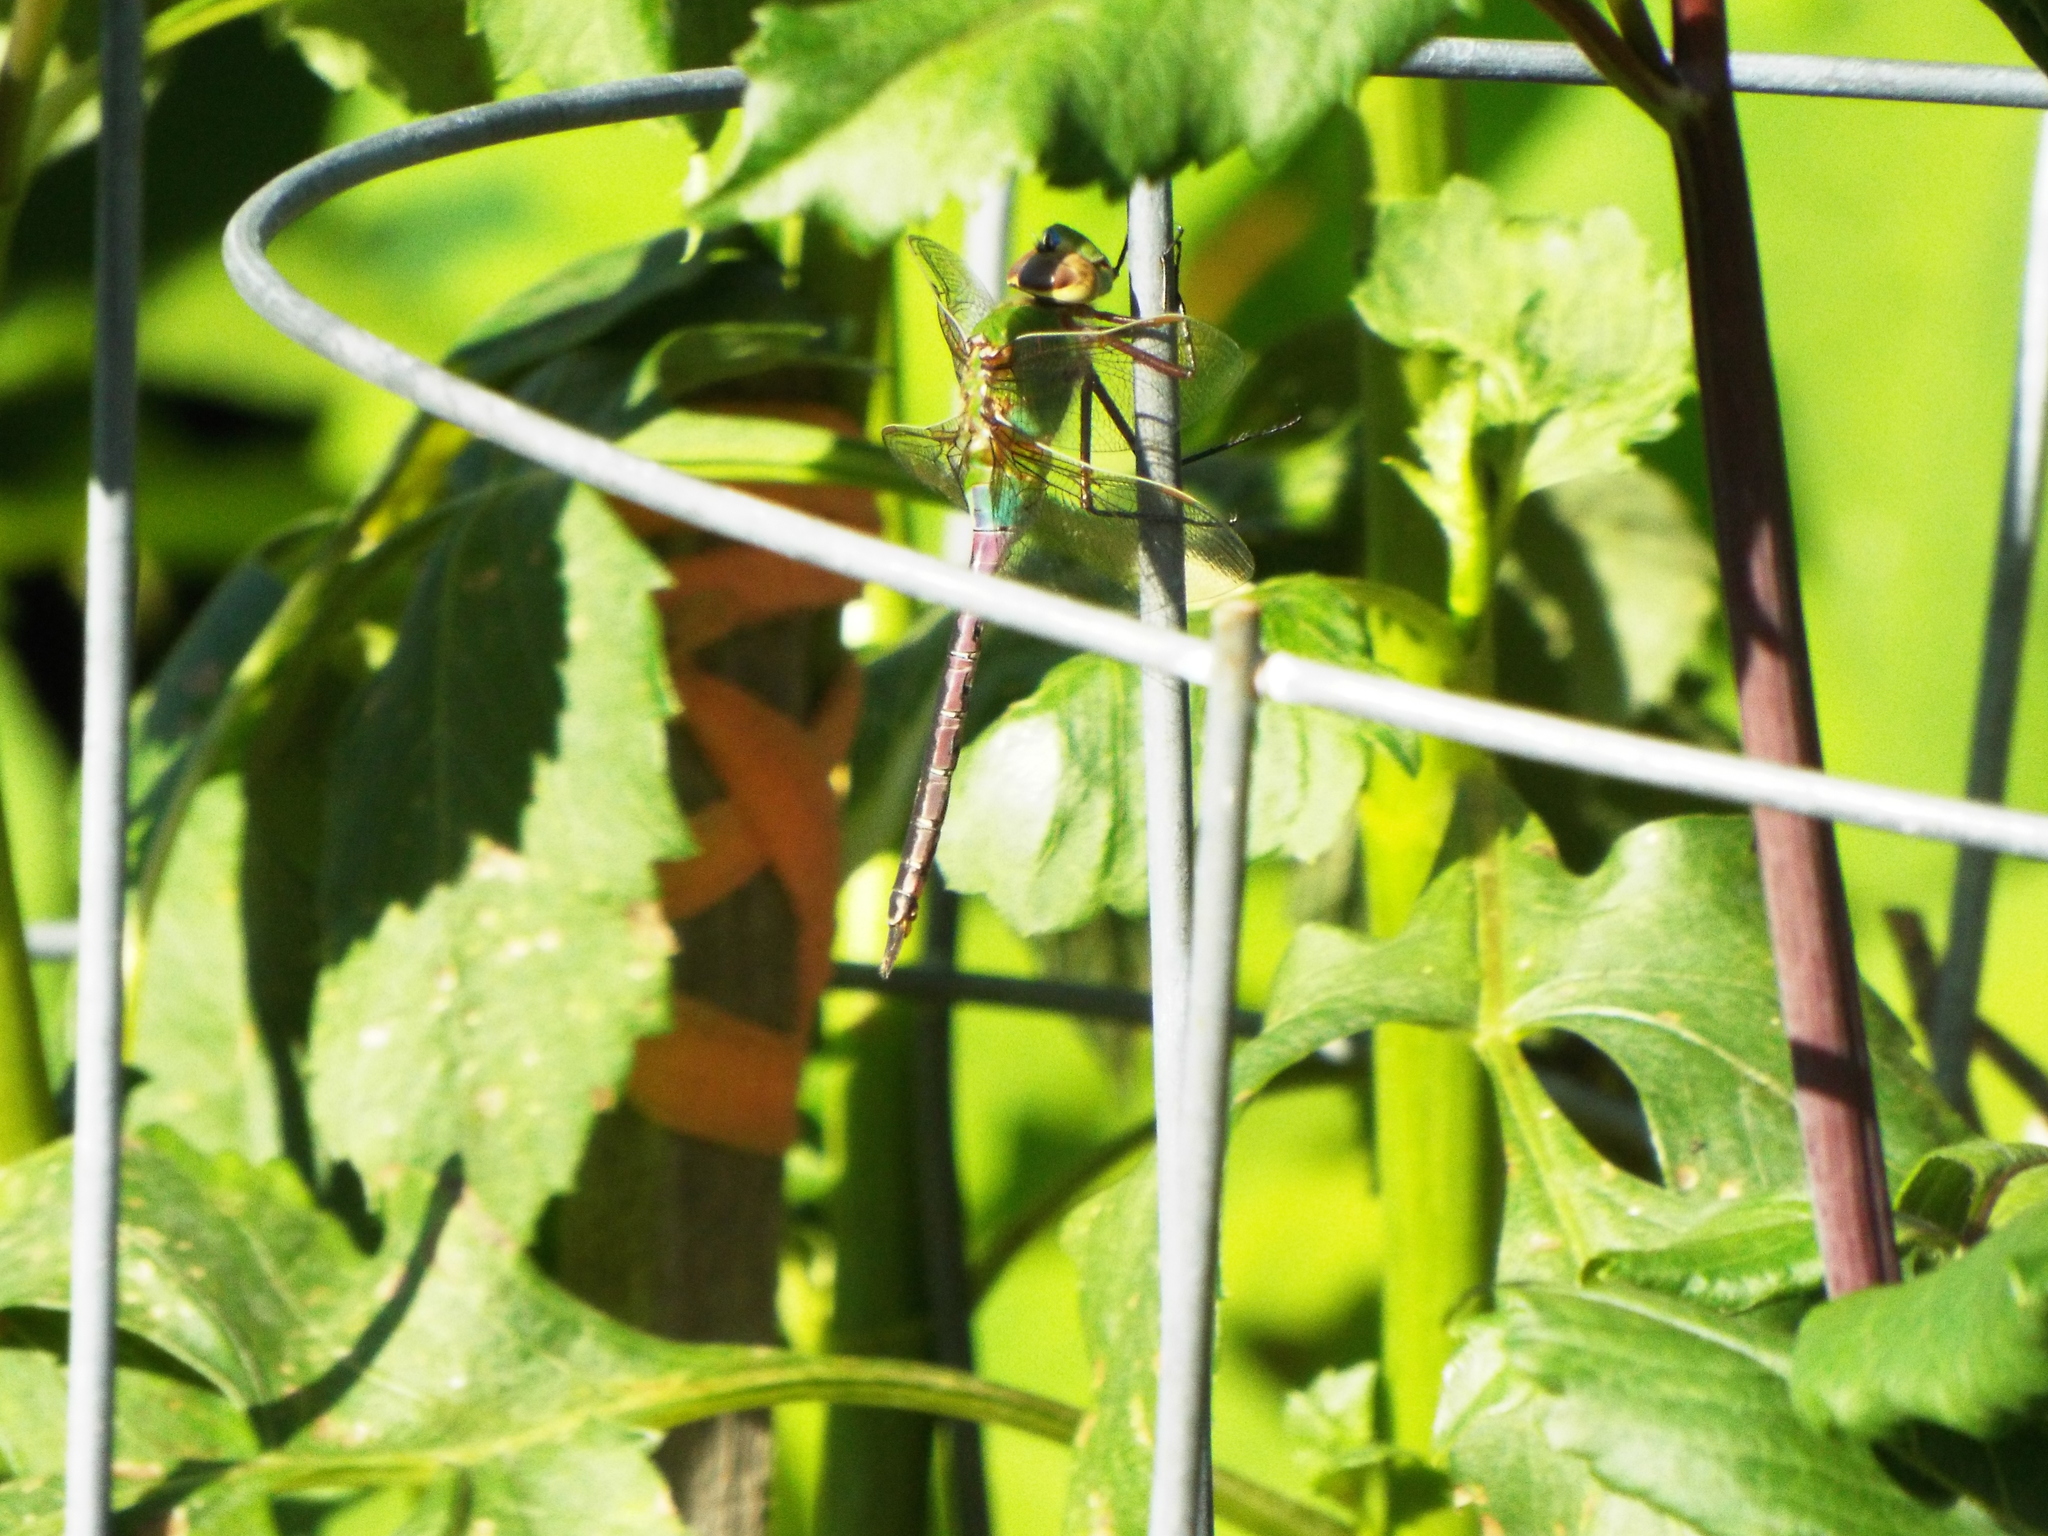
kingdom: Animalia
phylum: Arthropoda
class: Insecta
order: Odonata
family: Aeshnidae
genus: Anax
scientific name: Anax junius
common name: Common green darner
